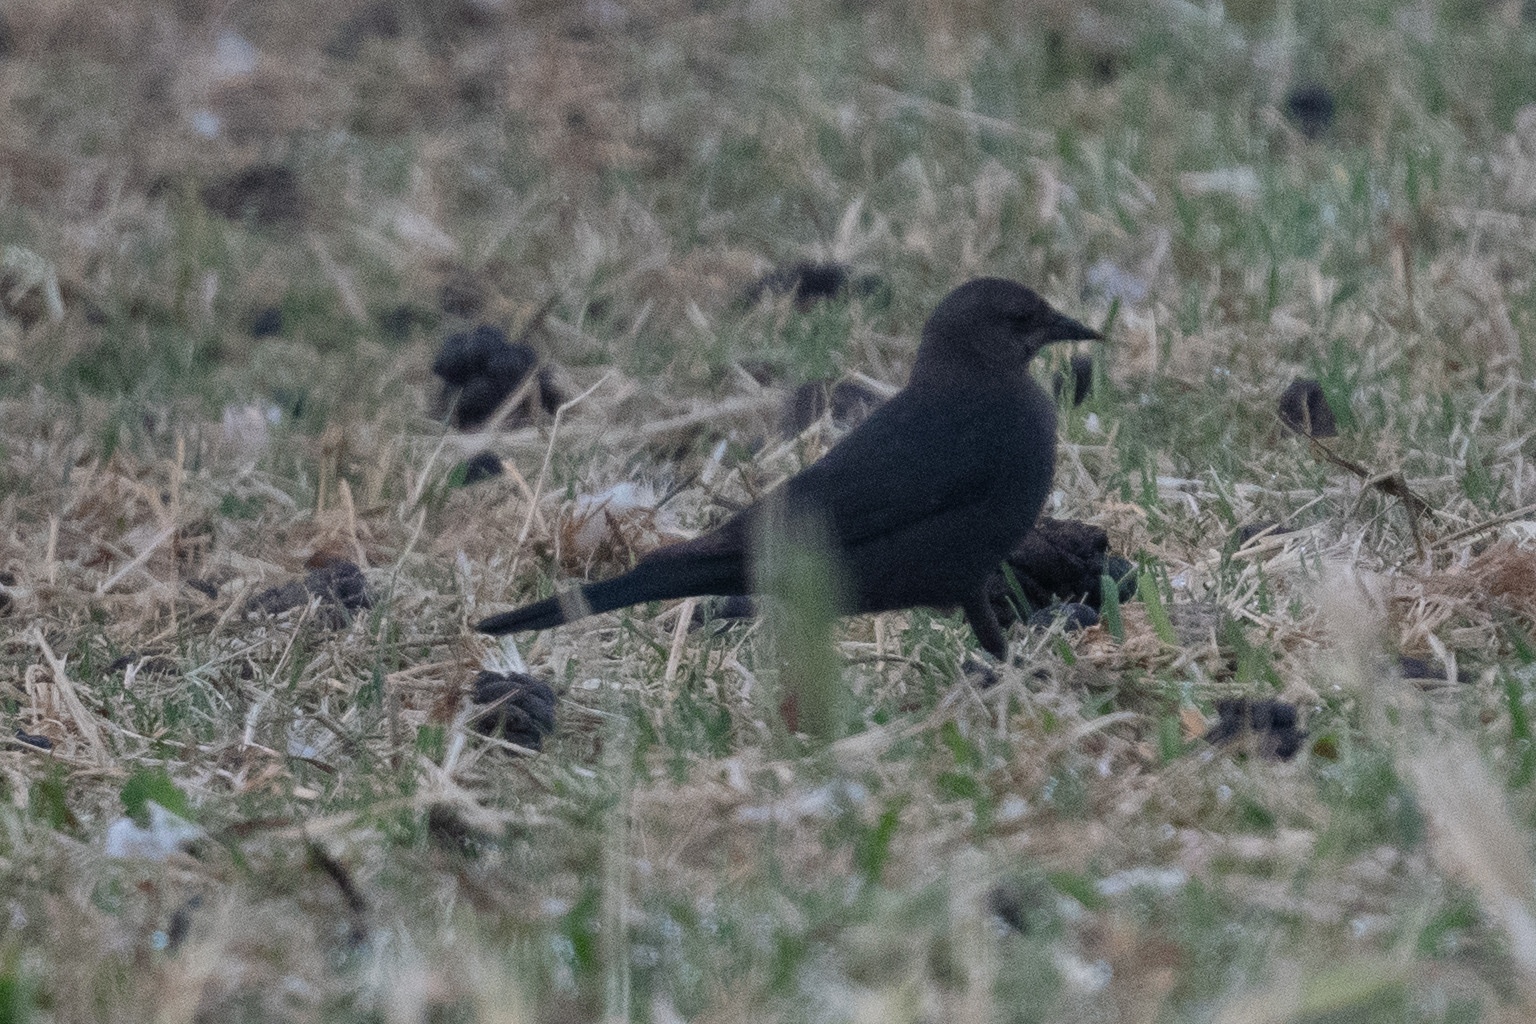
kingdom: Animalia
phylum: Chordata
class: Aves
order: Passeriformes
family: Icteridae
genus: Euphagus
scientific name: Euphagus cyanocephalus
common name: Brewer's blackbird
